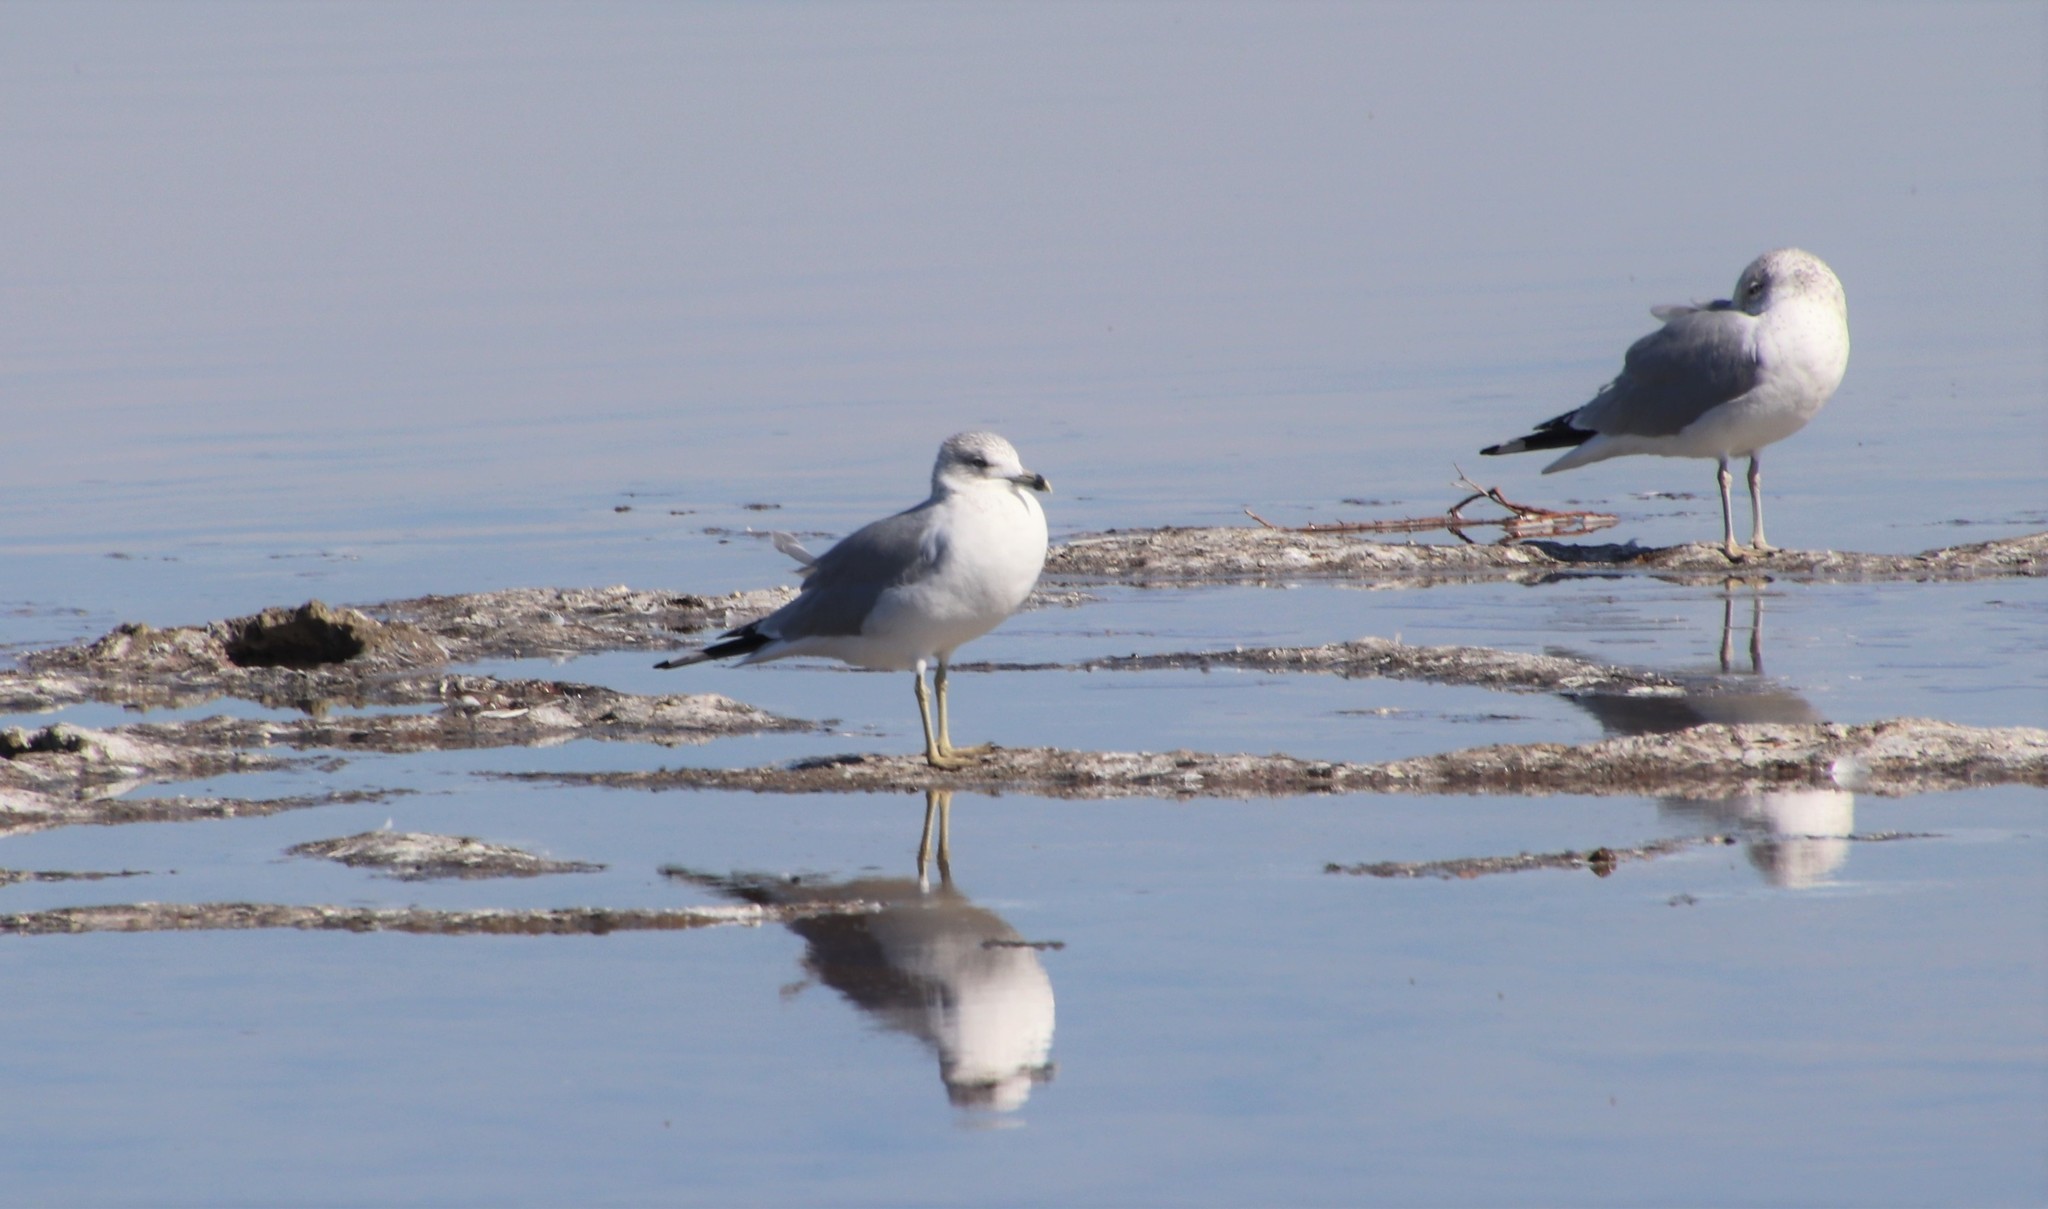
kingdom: Animalia
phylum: Chordata
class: Aves
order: Charadriiformes
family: Laridae
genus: Larus
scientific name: Larus delawarensis
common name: Ring-billed gull
